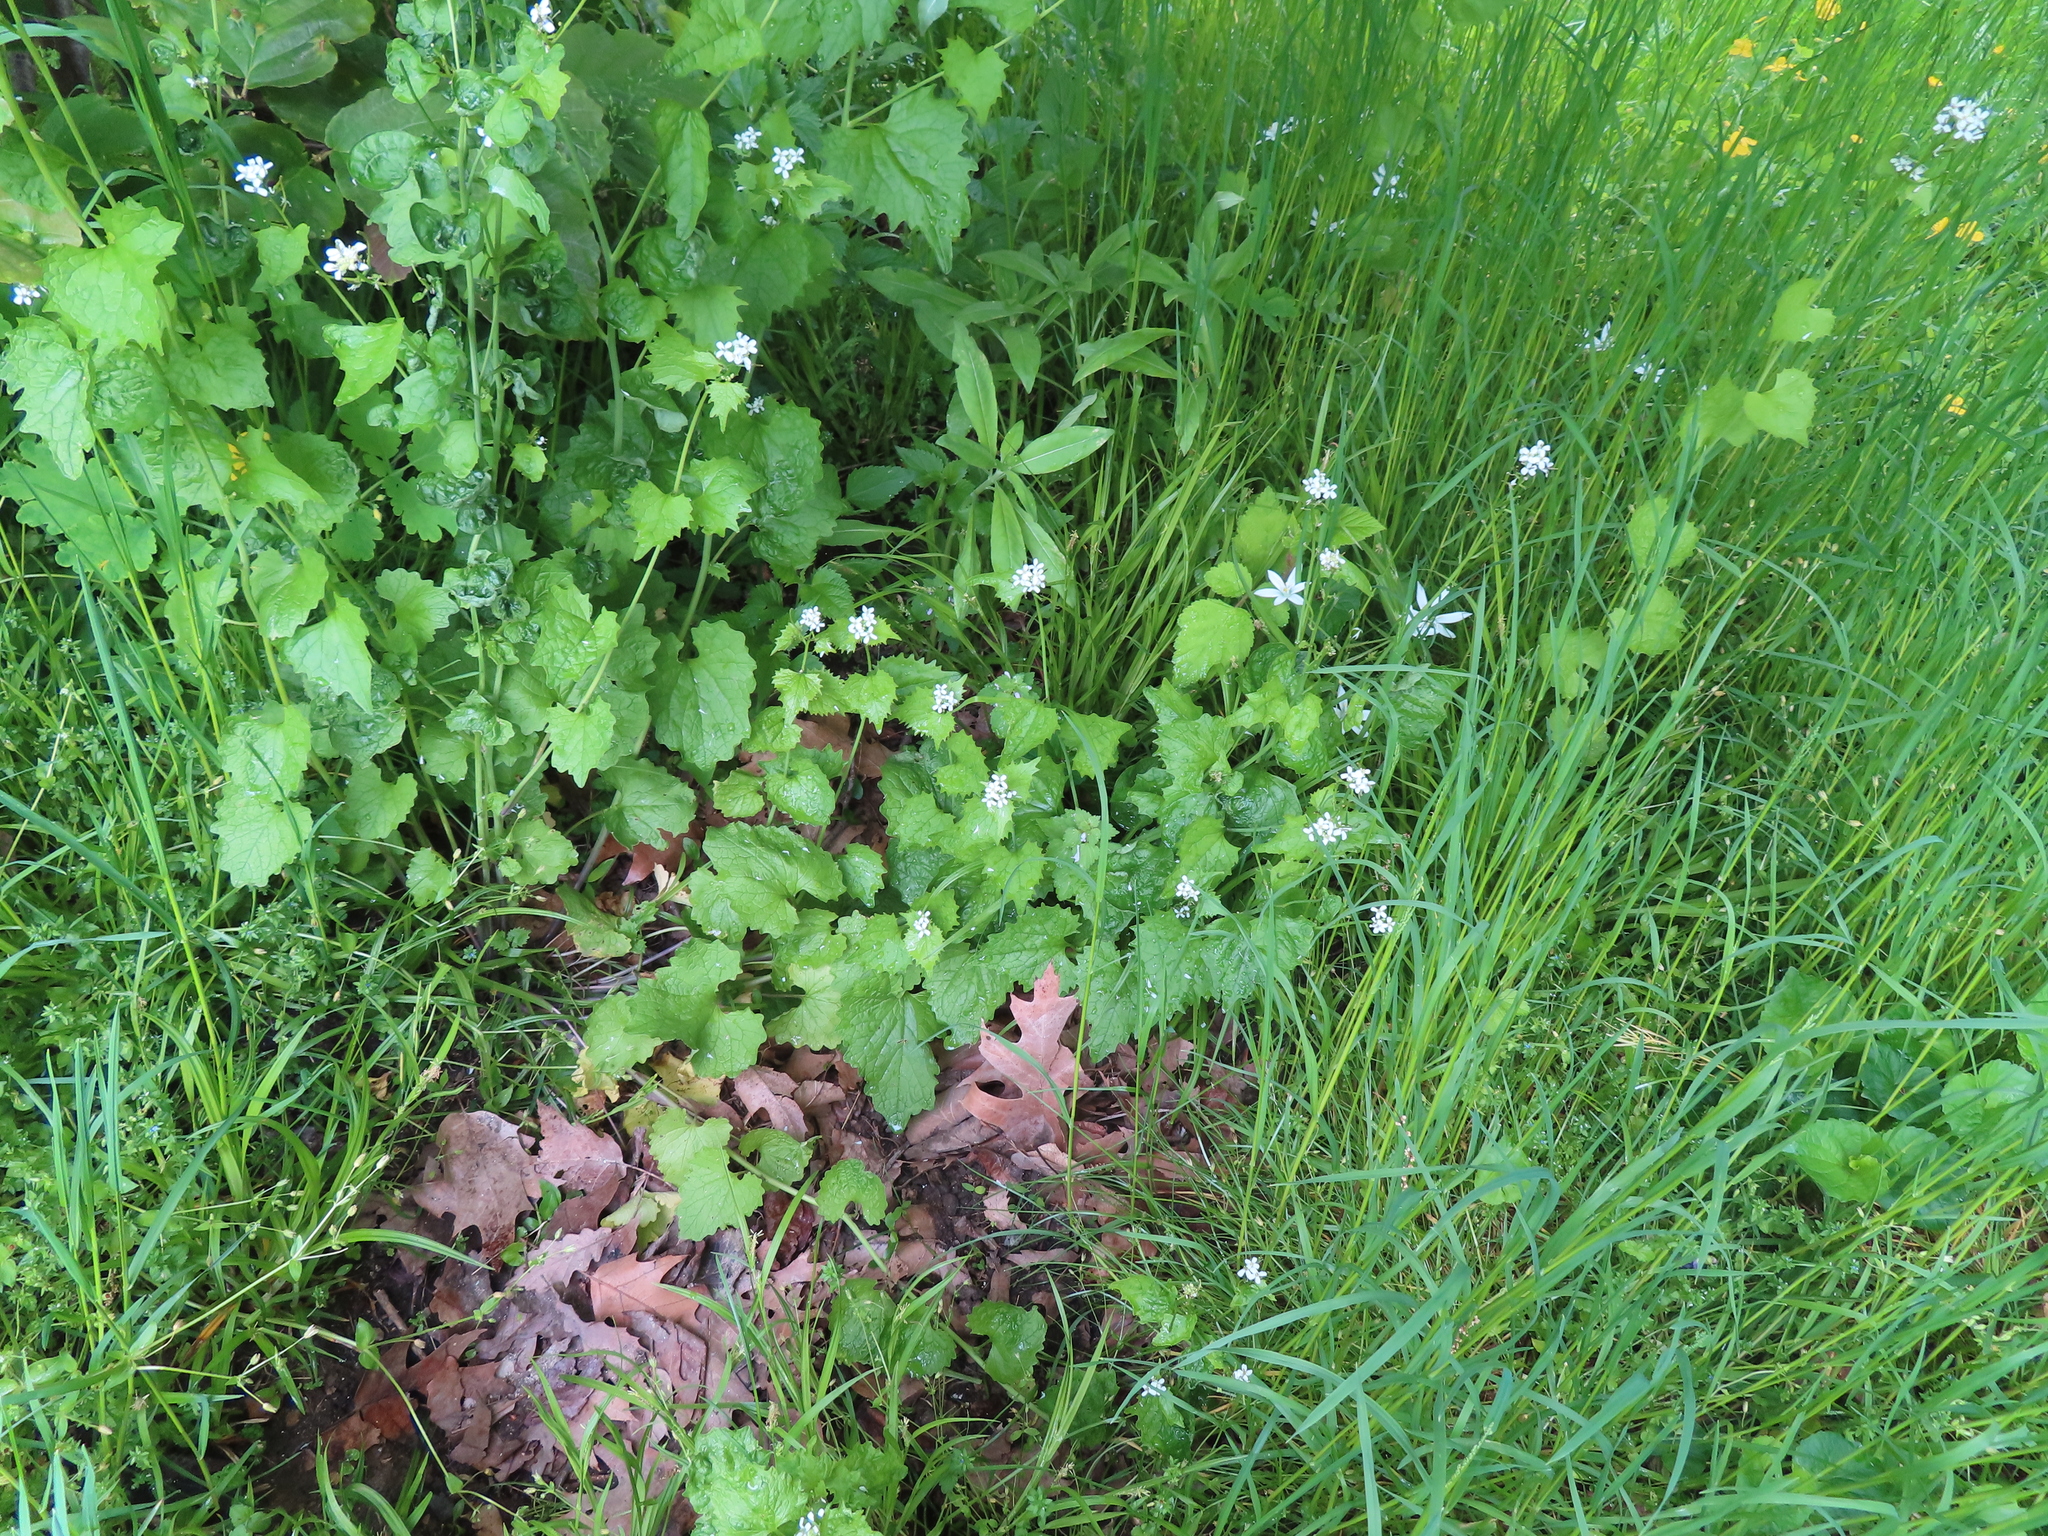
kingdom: Plantae
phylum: Tracheophyta
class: Magnoliopsida
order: Brassicales
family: Brassicaceae
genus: Alliaria
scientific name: Alliaria petiolata
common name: Garlic mustard
